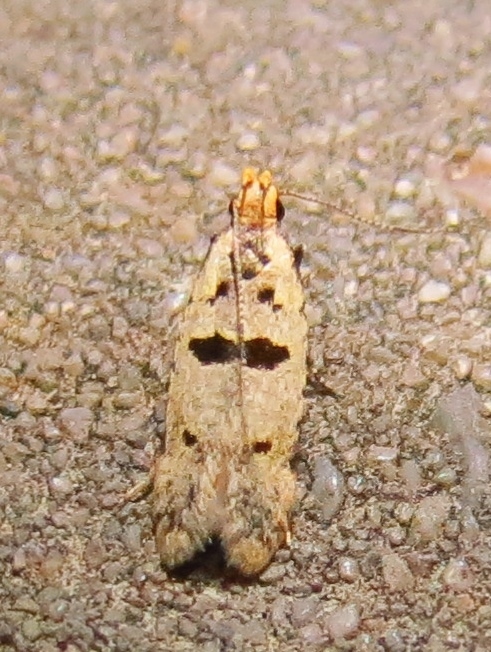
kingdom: Animalia
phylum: Arthropoda
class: Insecta
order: Lepidoptera
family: Gelechiidae
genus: Deltophora
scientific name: Deltophora glandiferella
